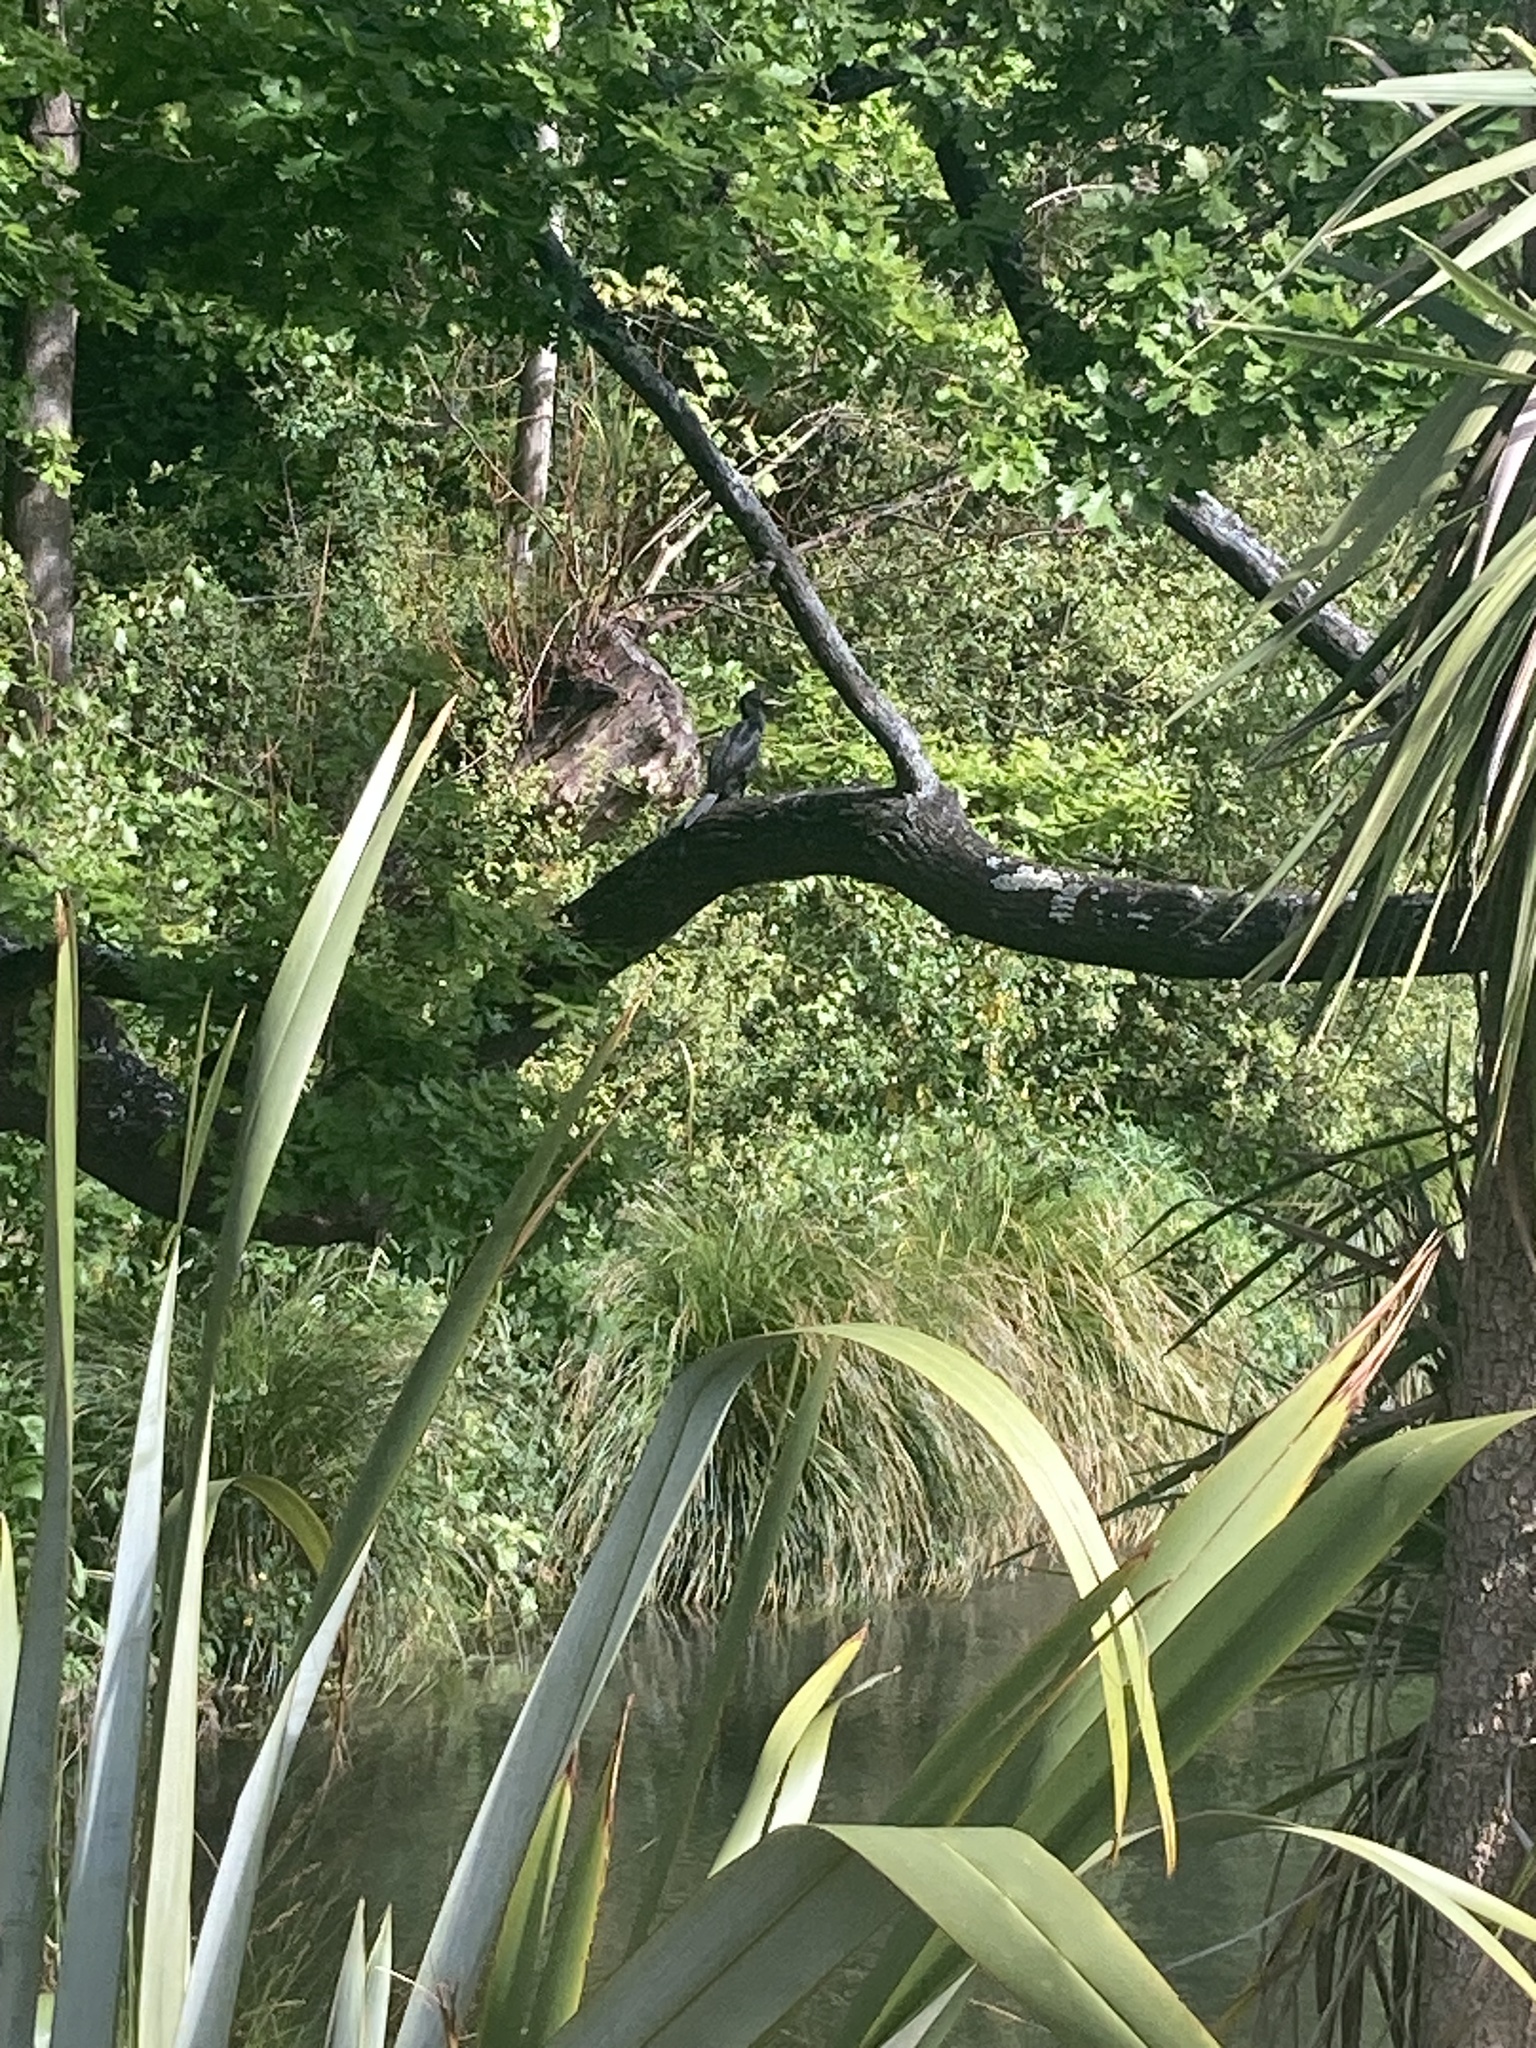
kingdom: Animalia
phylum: Chordata
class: Aves
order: Suliformes
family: Phalacrocoracidae
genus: Microcarbo
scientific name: Microcarbo melanoleucos
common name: Little pied cormorant
